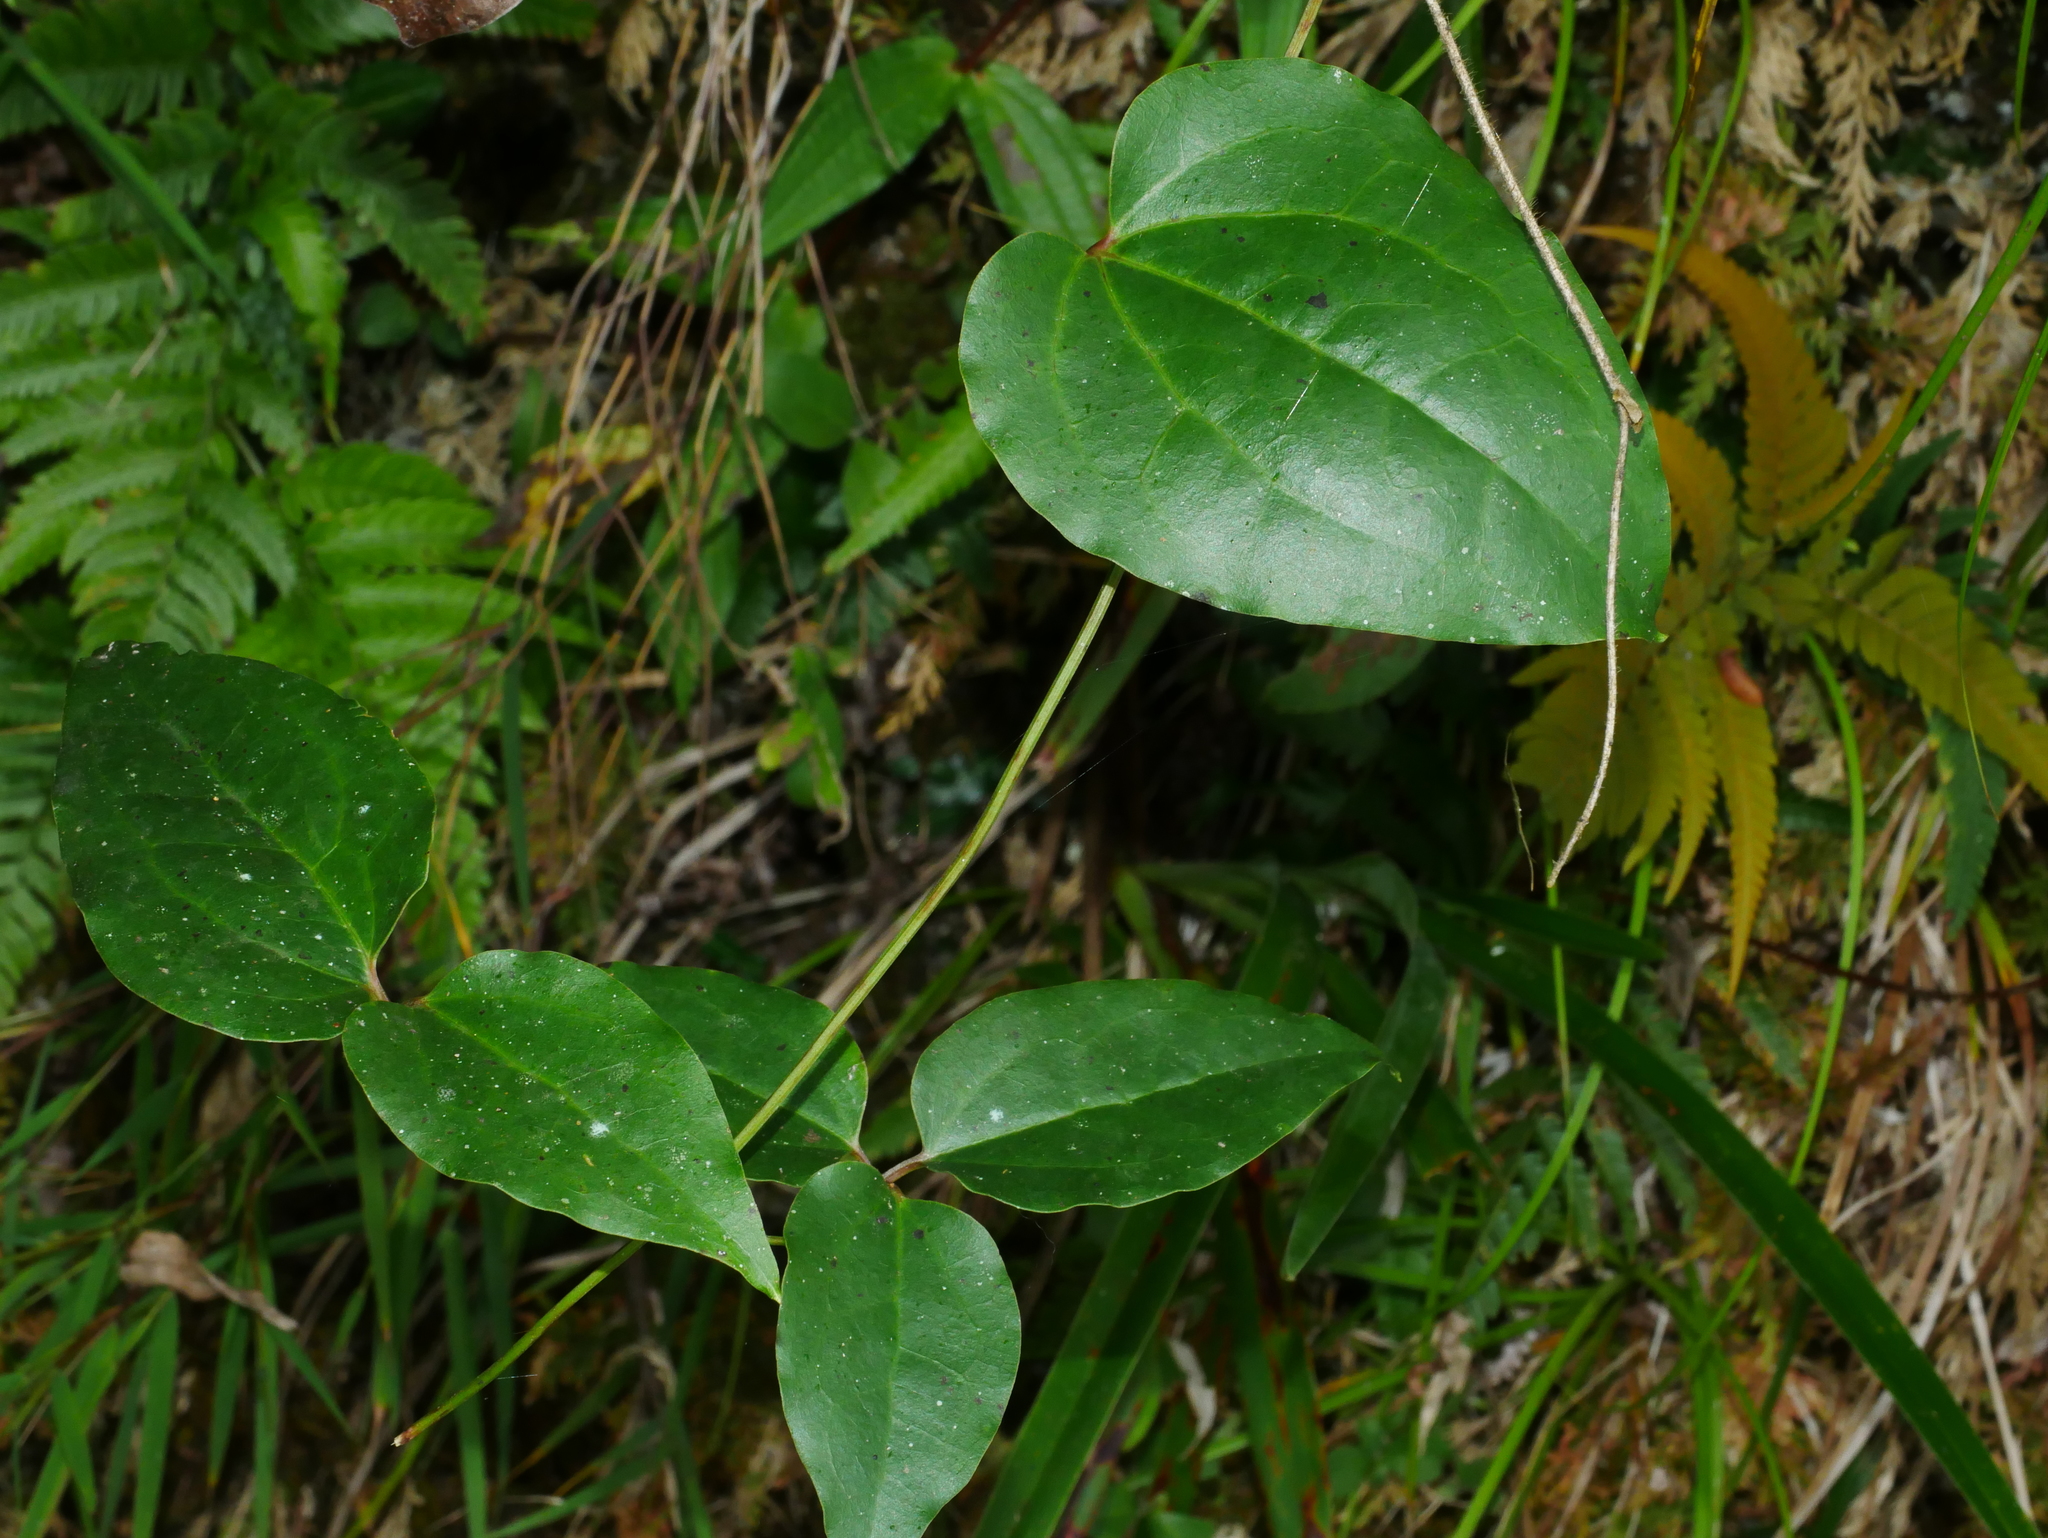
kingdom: Plantae
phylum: Tracheophyta
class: Magnoliopsida
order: Ranunculales
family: Ranunculaceae
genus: Clematis
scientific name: Clematis meyeniana
